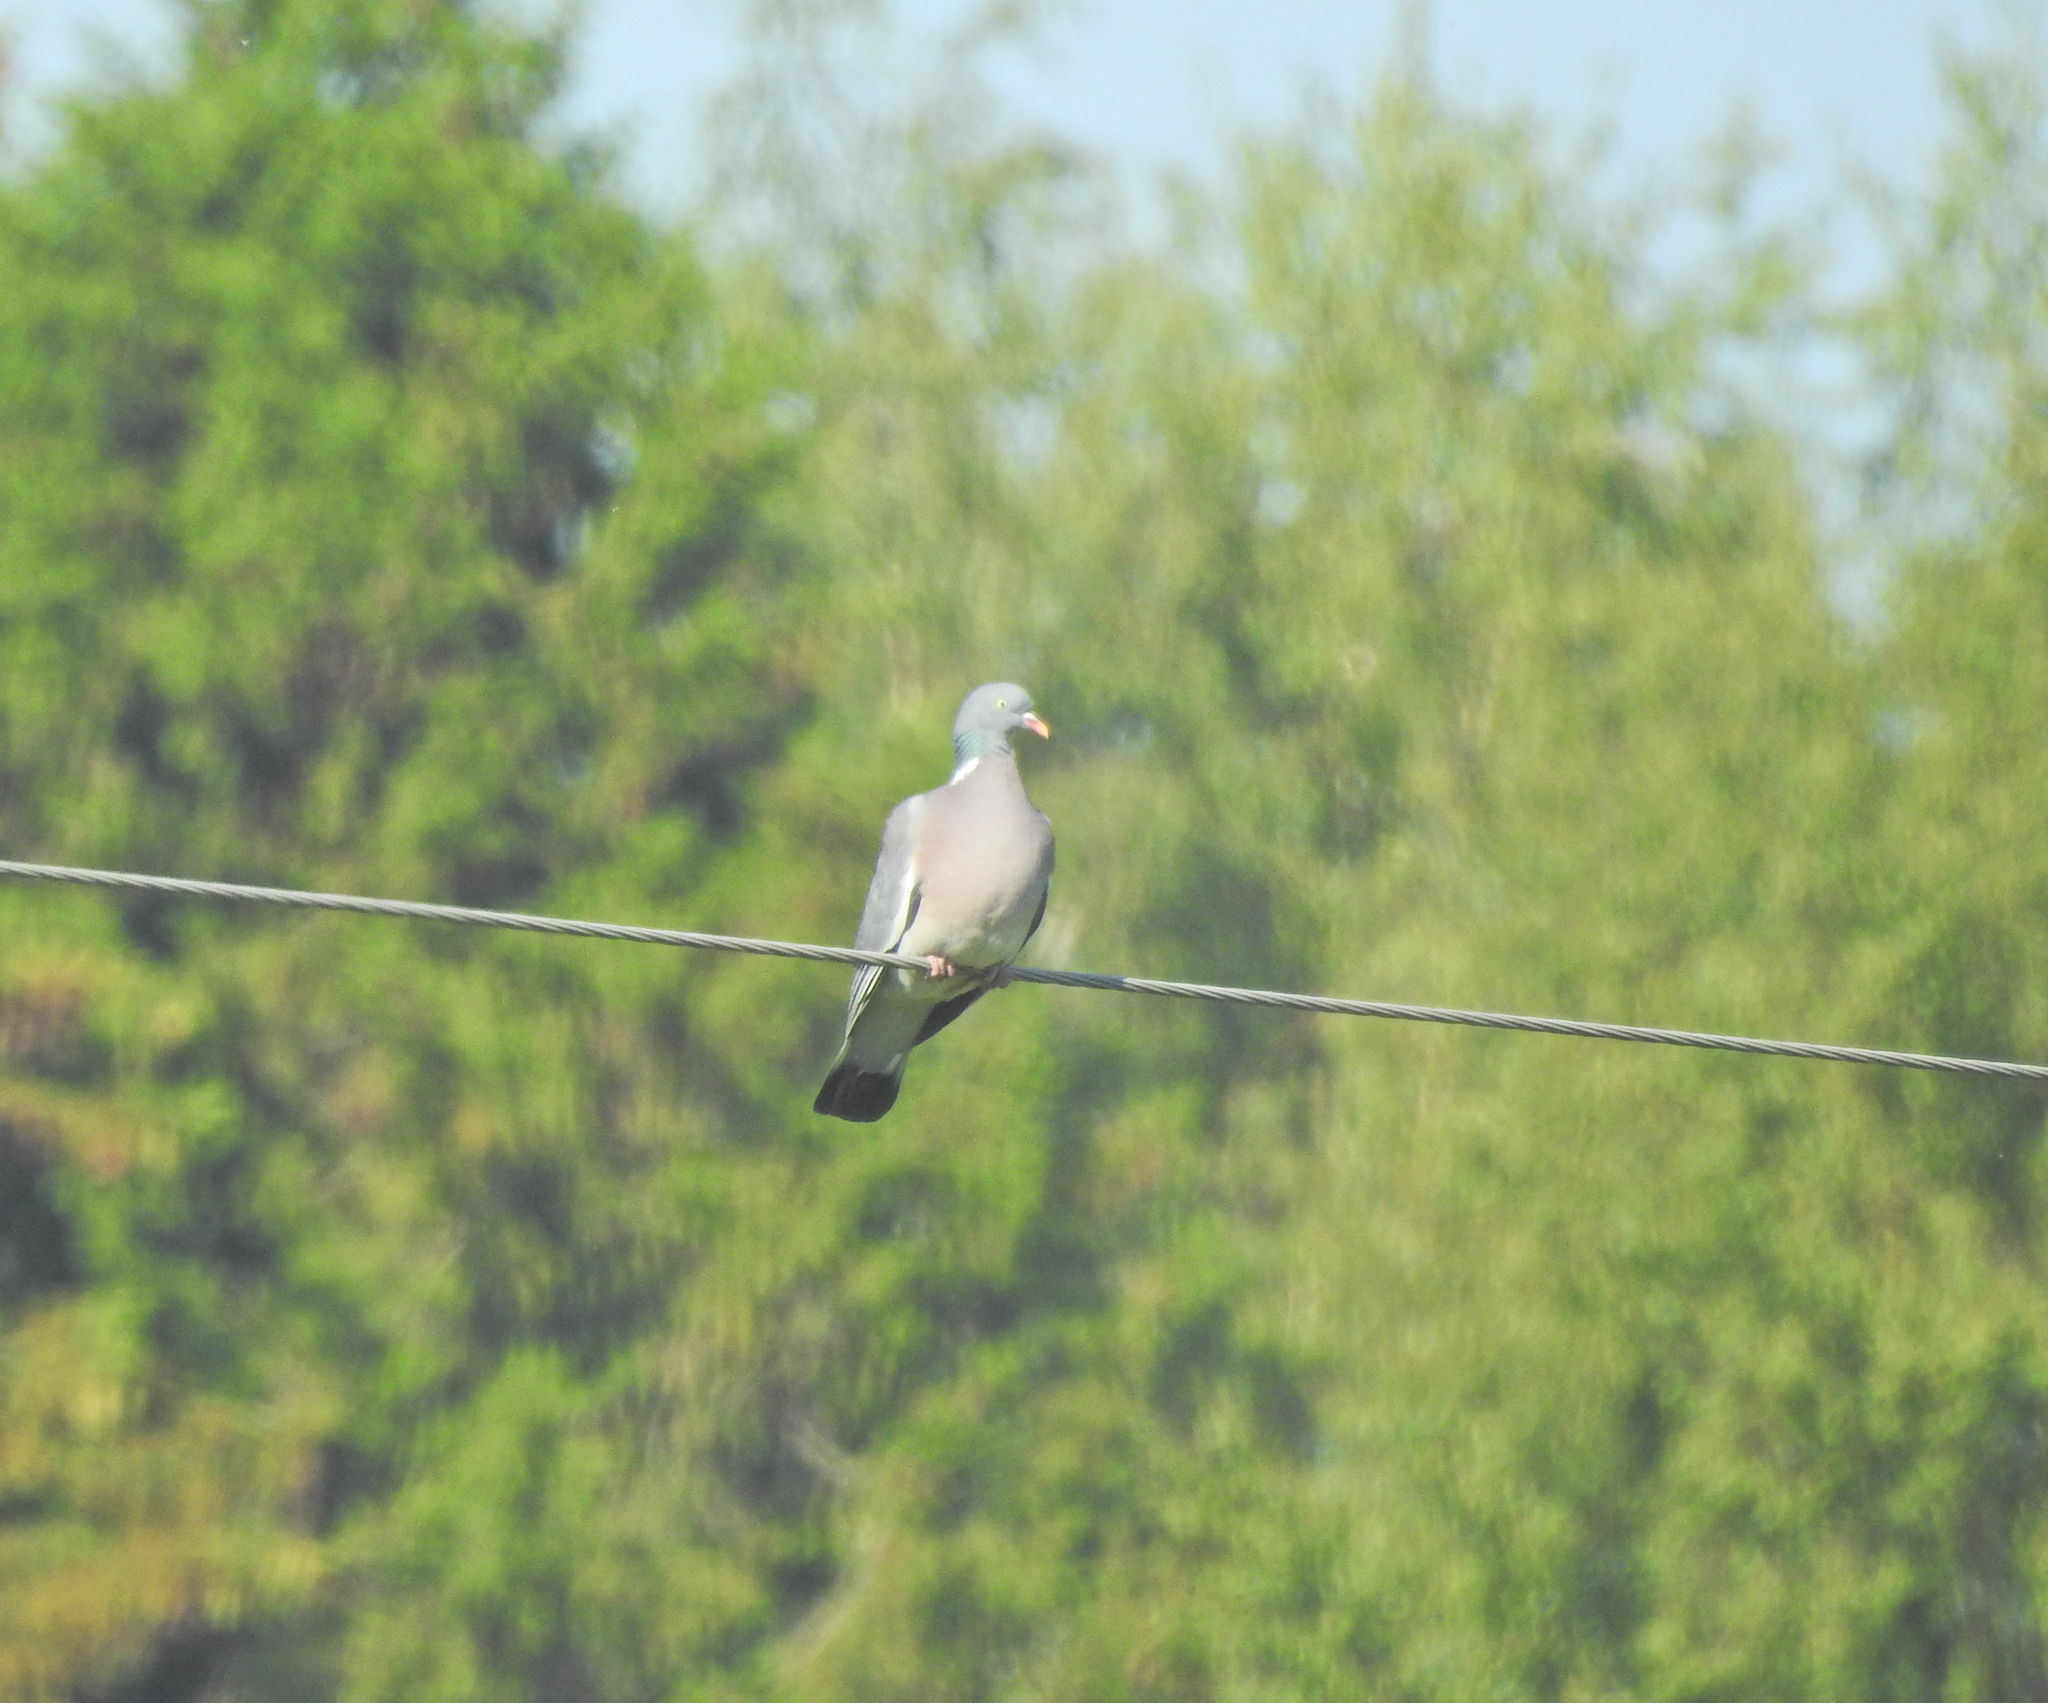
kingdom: Animalia
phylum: Chordata
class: Aves
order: Columbiformes
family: Columbidae
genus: Columba
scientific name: Columba palumbus
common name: Common wood pigeon
